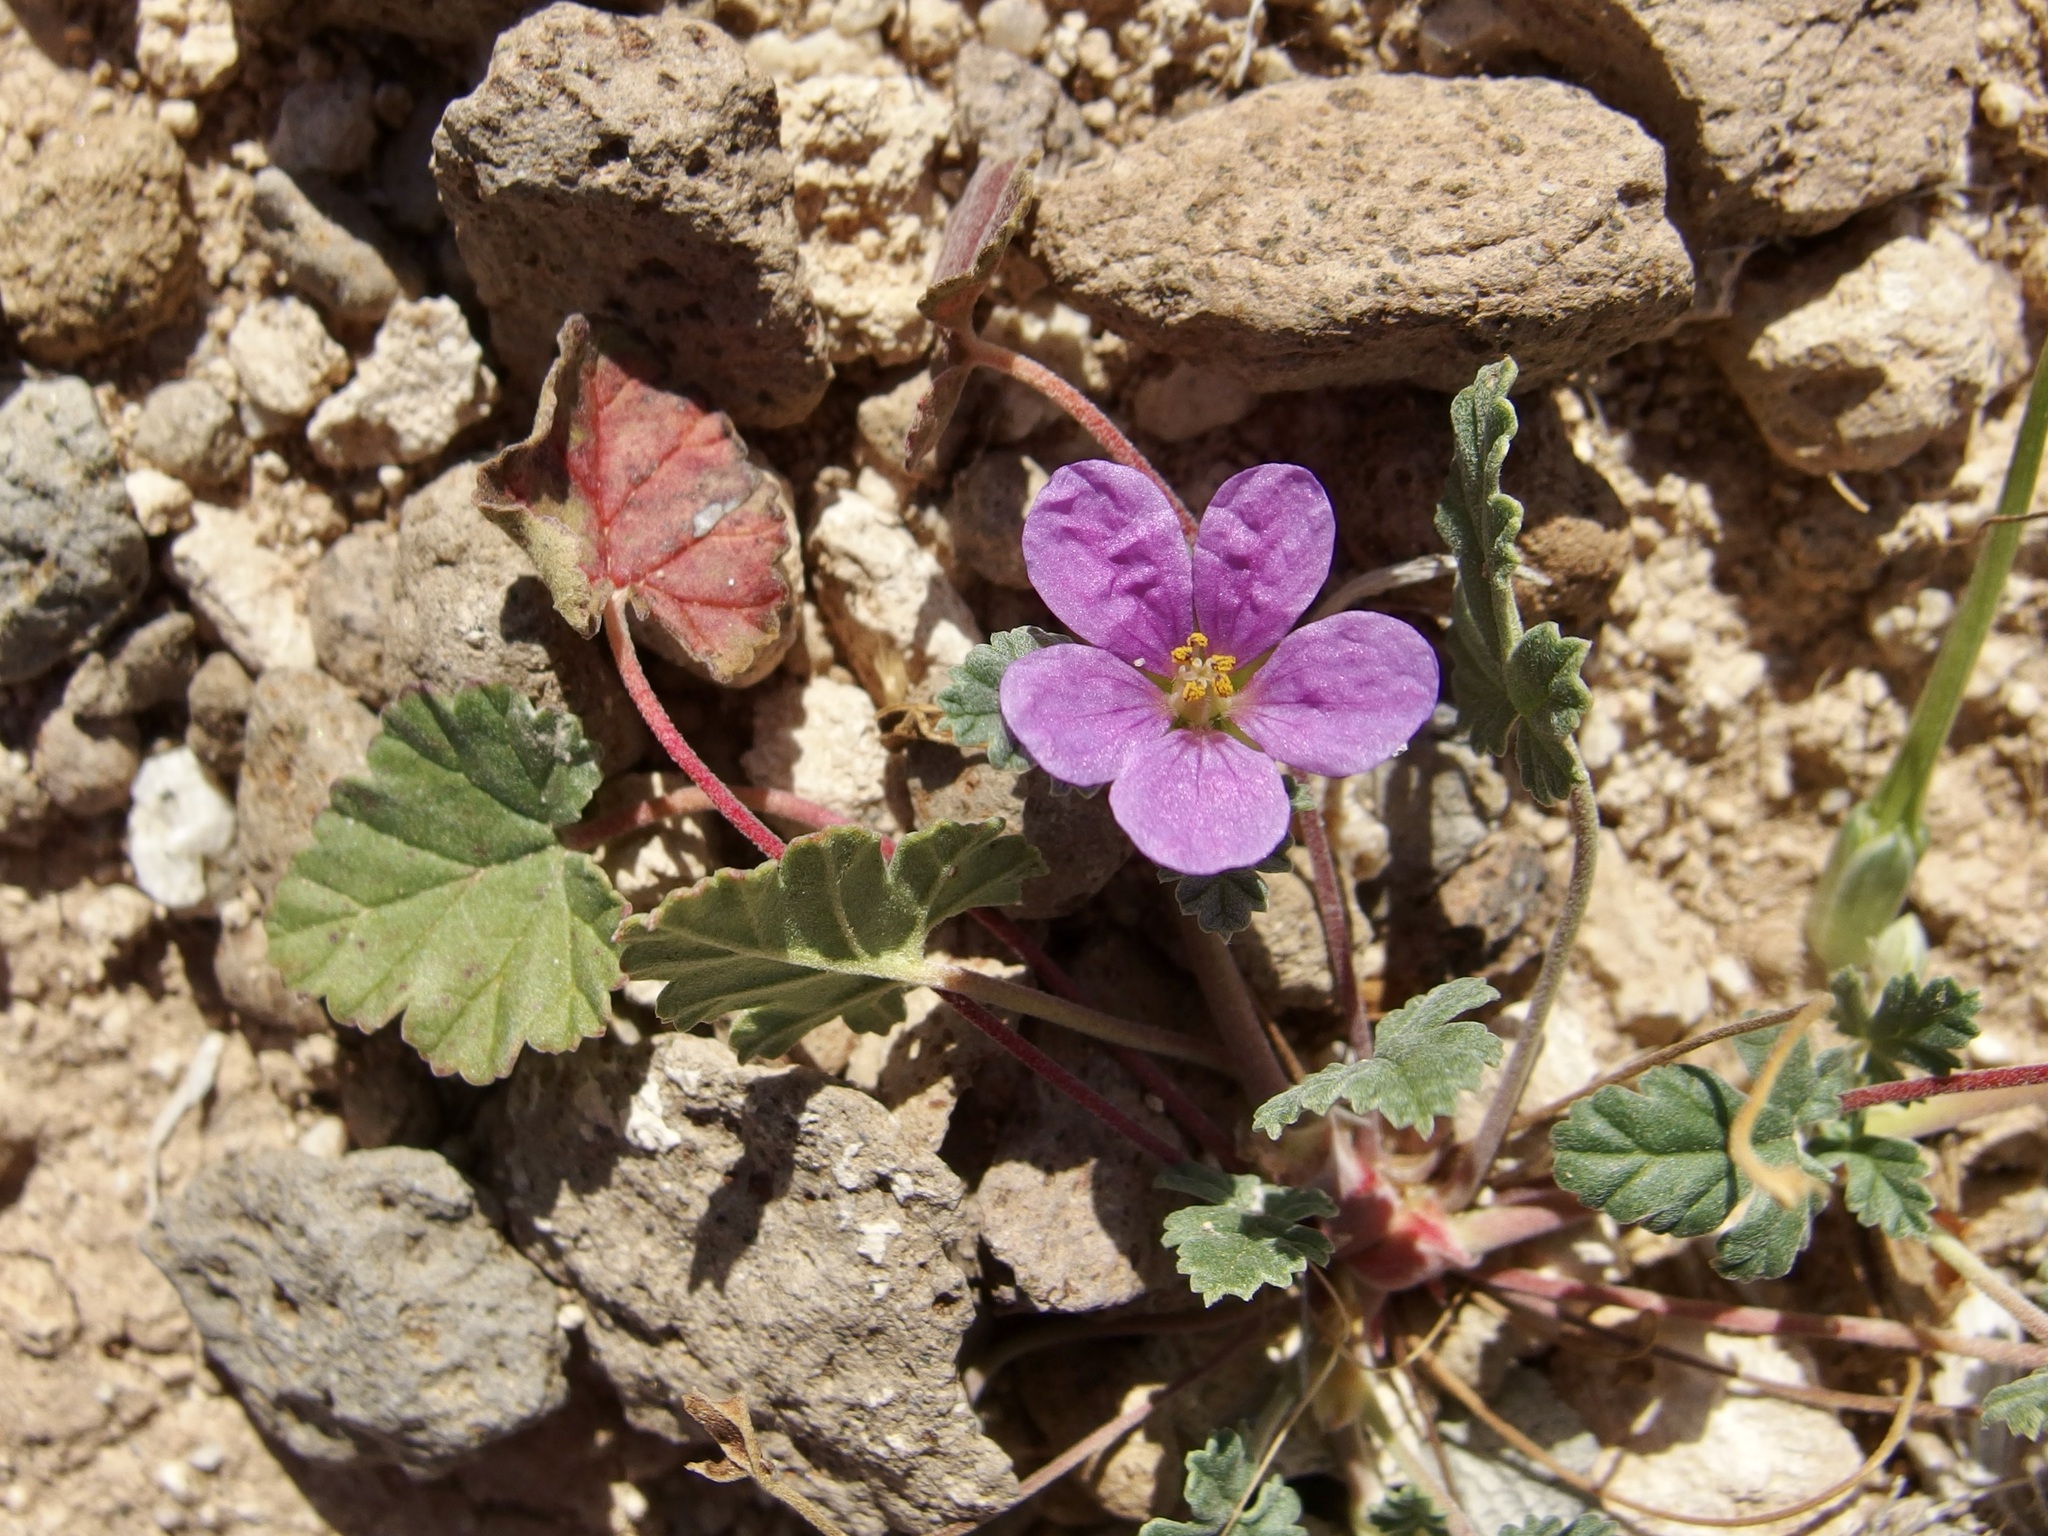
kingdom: Plantae
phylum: Tracheophyta
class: Magnoliopsida
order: Geraniales
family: Geraniaceae
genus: Erodium
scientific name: Erodium texanum
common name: Texas stork's-bill
